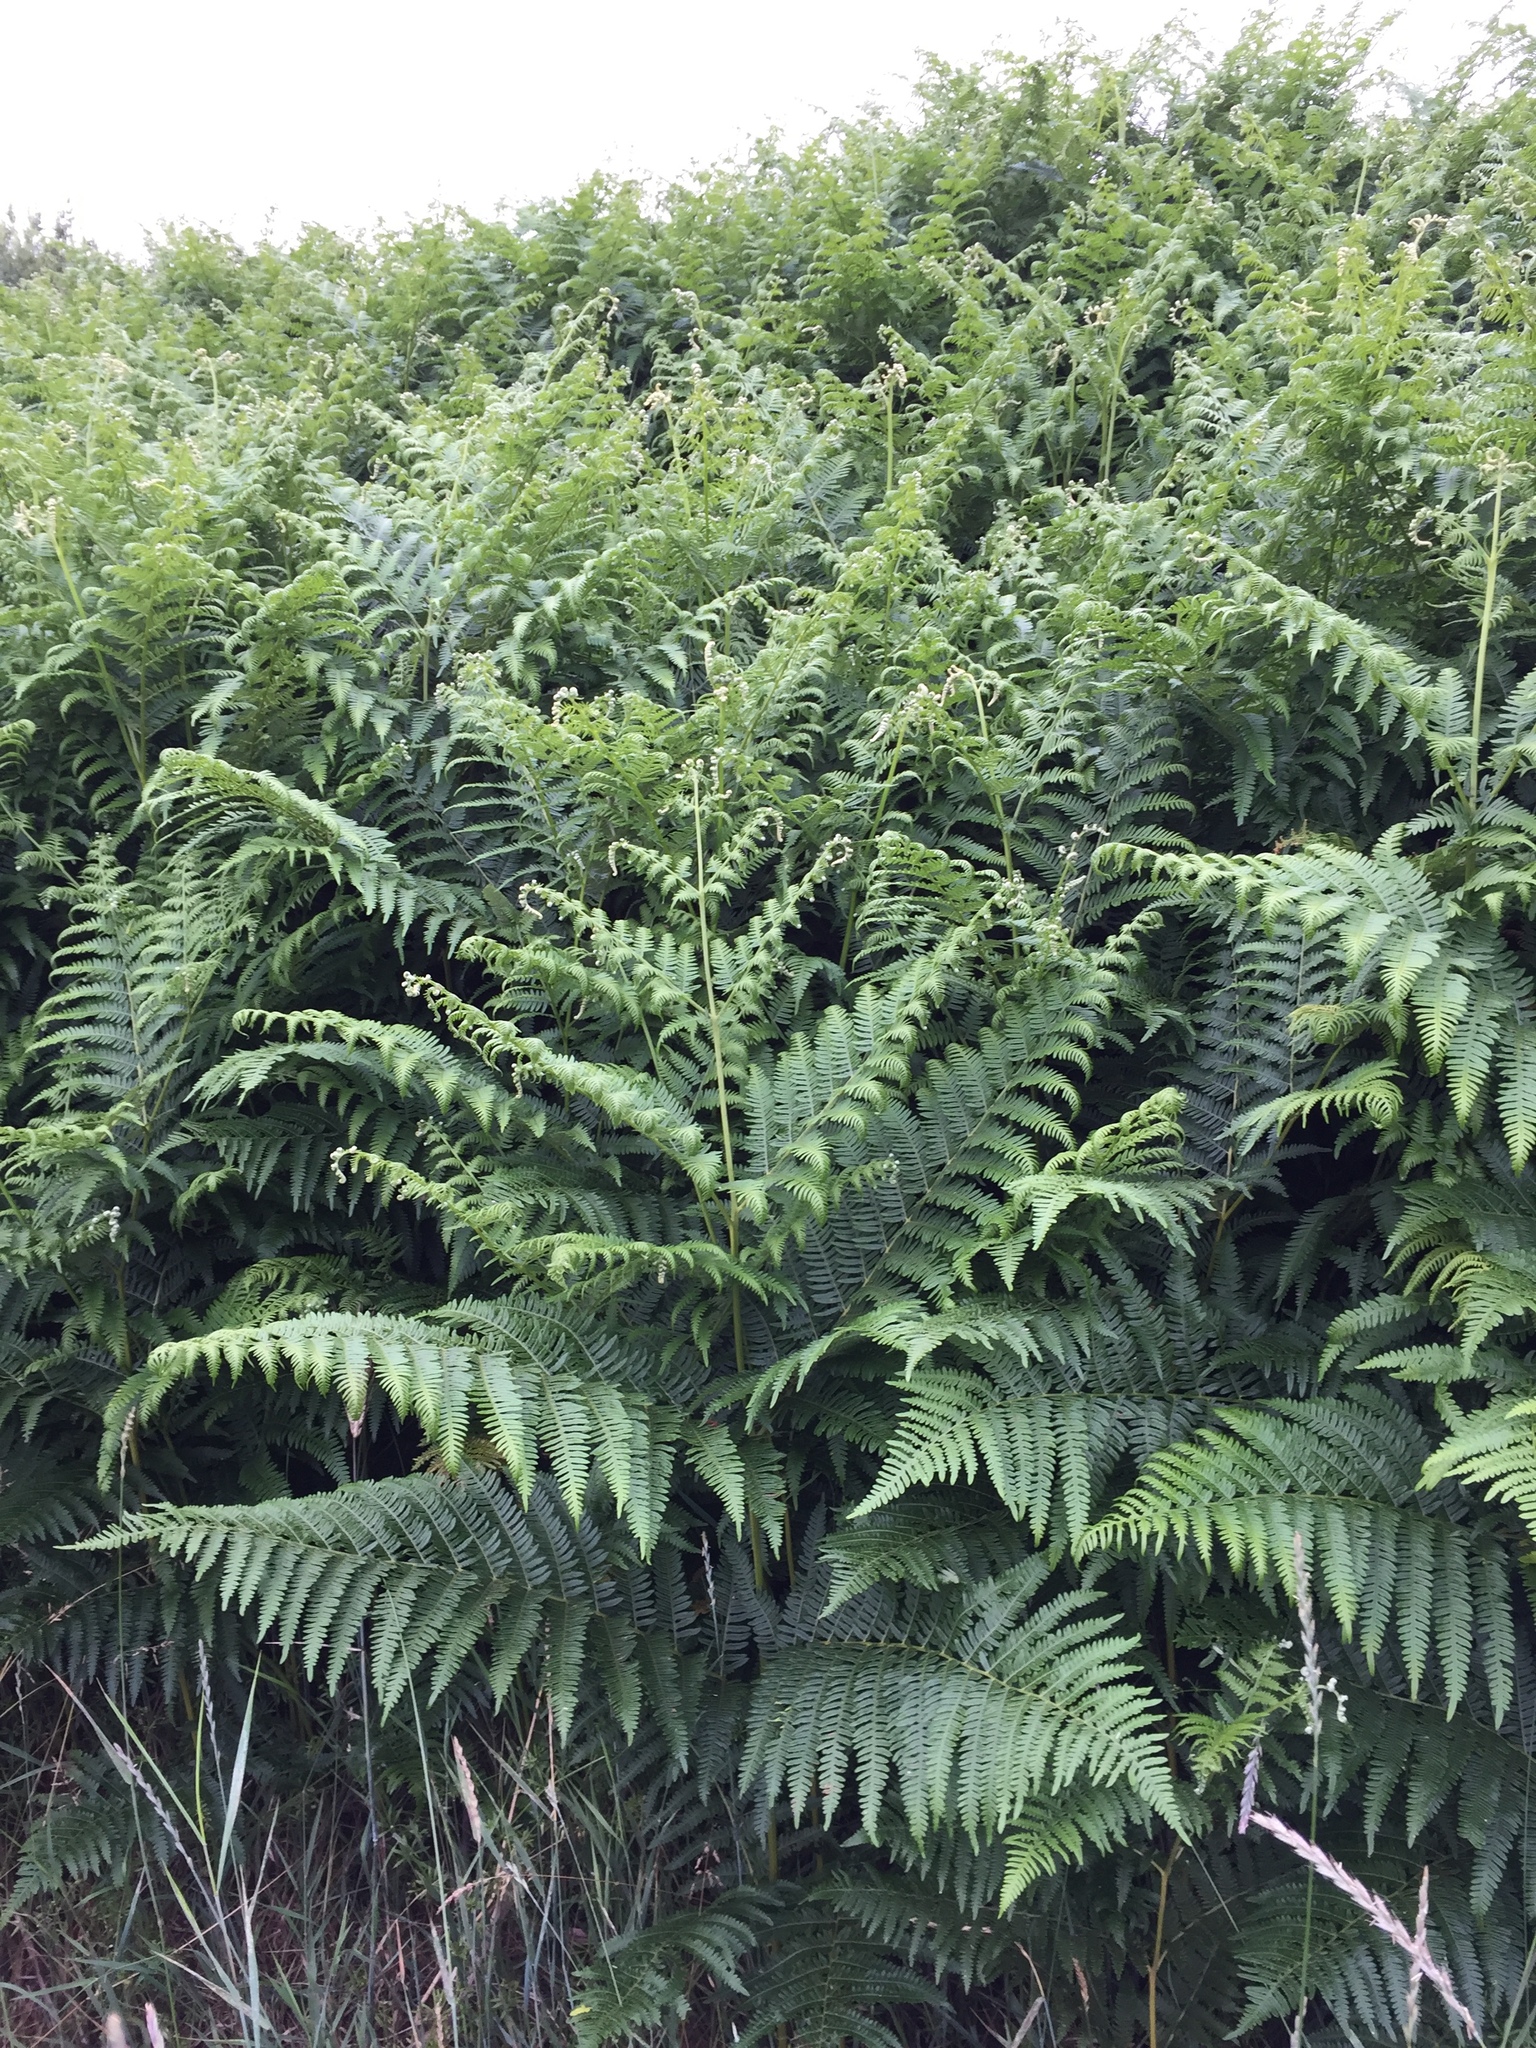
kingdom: Plantae
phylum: Tracheophyta
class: Polypodiopsida
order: Polypodiales
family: Dennstaedtiaceae
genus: Pteridium
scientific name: Pteridium aquilinum
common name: Bracken
